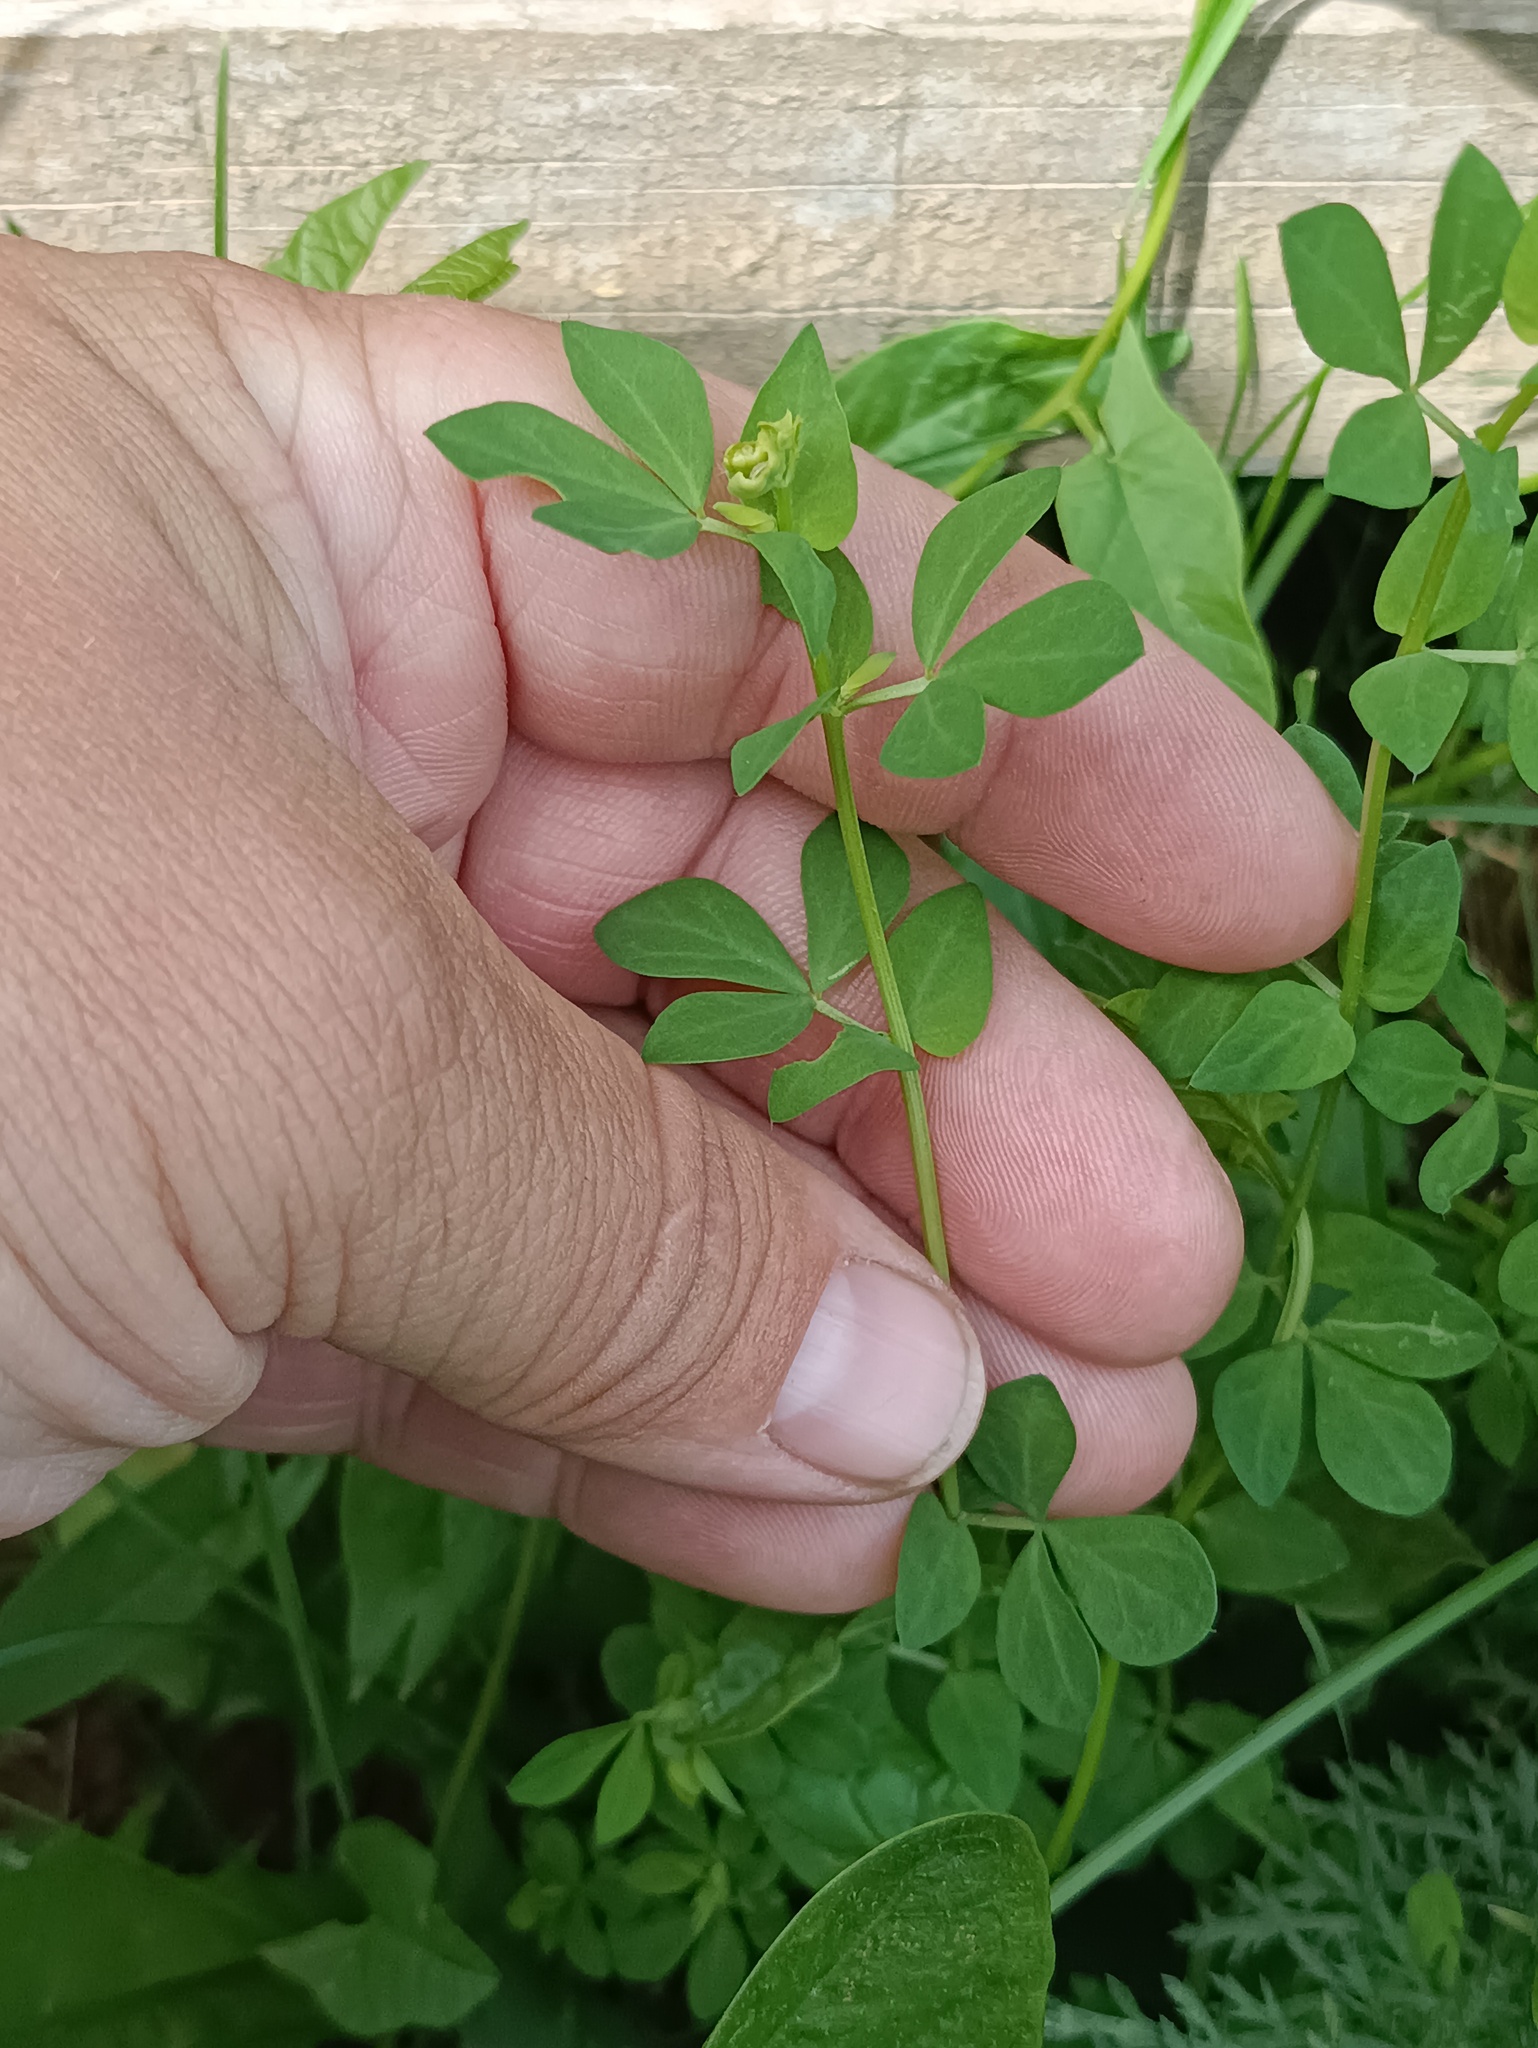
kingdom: Plantae
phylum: Tracheophyta
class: Magnoliopsida
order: Fabales
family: Fabaceae
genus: Medicago
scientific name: Medicago lupulina
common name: Black medick
